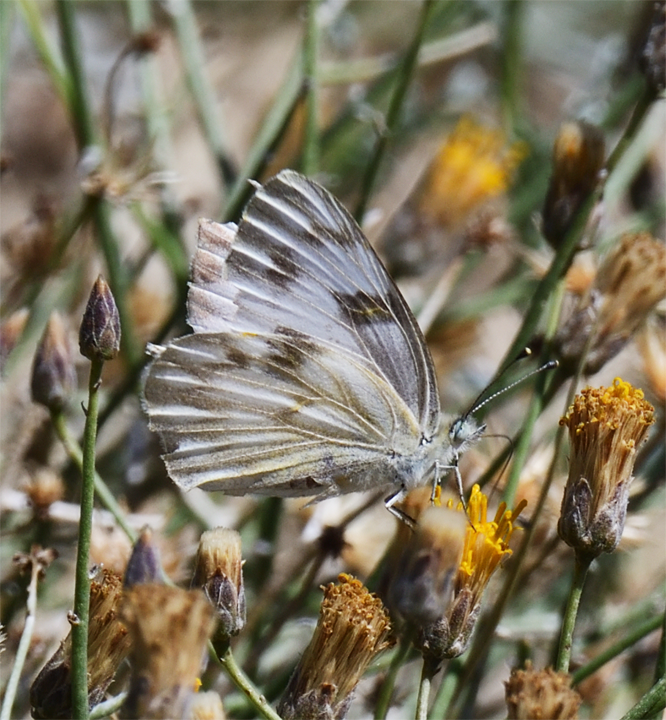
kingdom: Animalia
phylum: Arthropoda
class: Insecta
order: Lepidoptera
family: Pieridae
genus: Pontia
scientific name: Pontia protodice
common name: Checkered white
